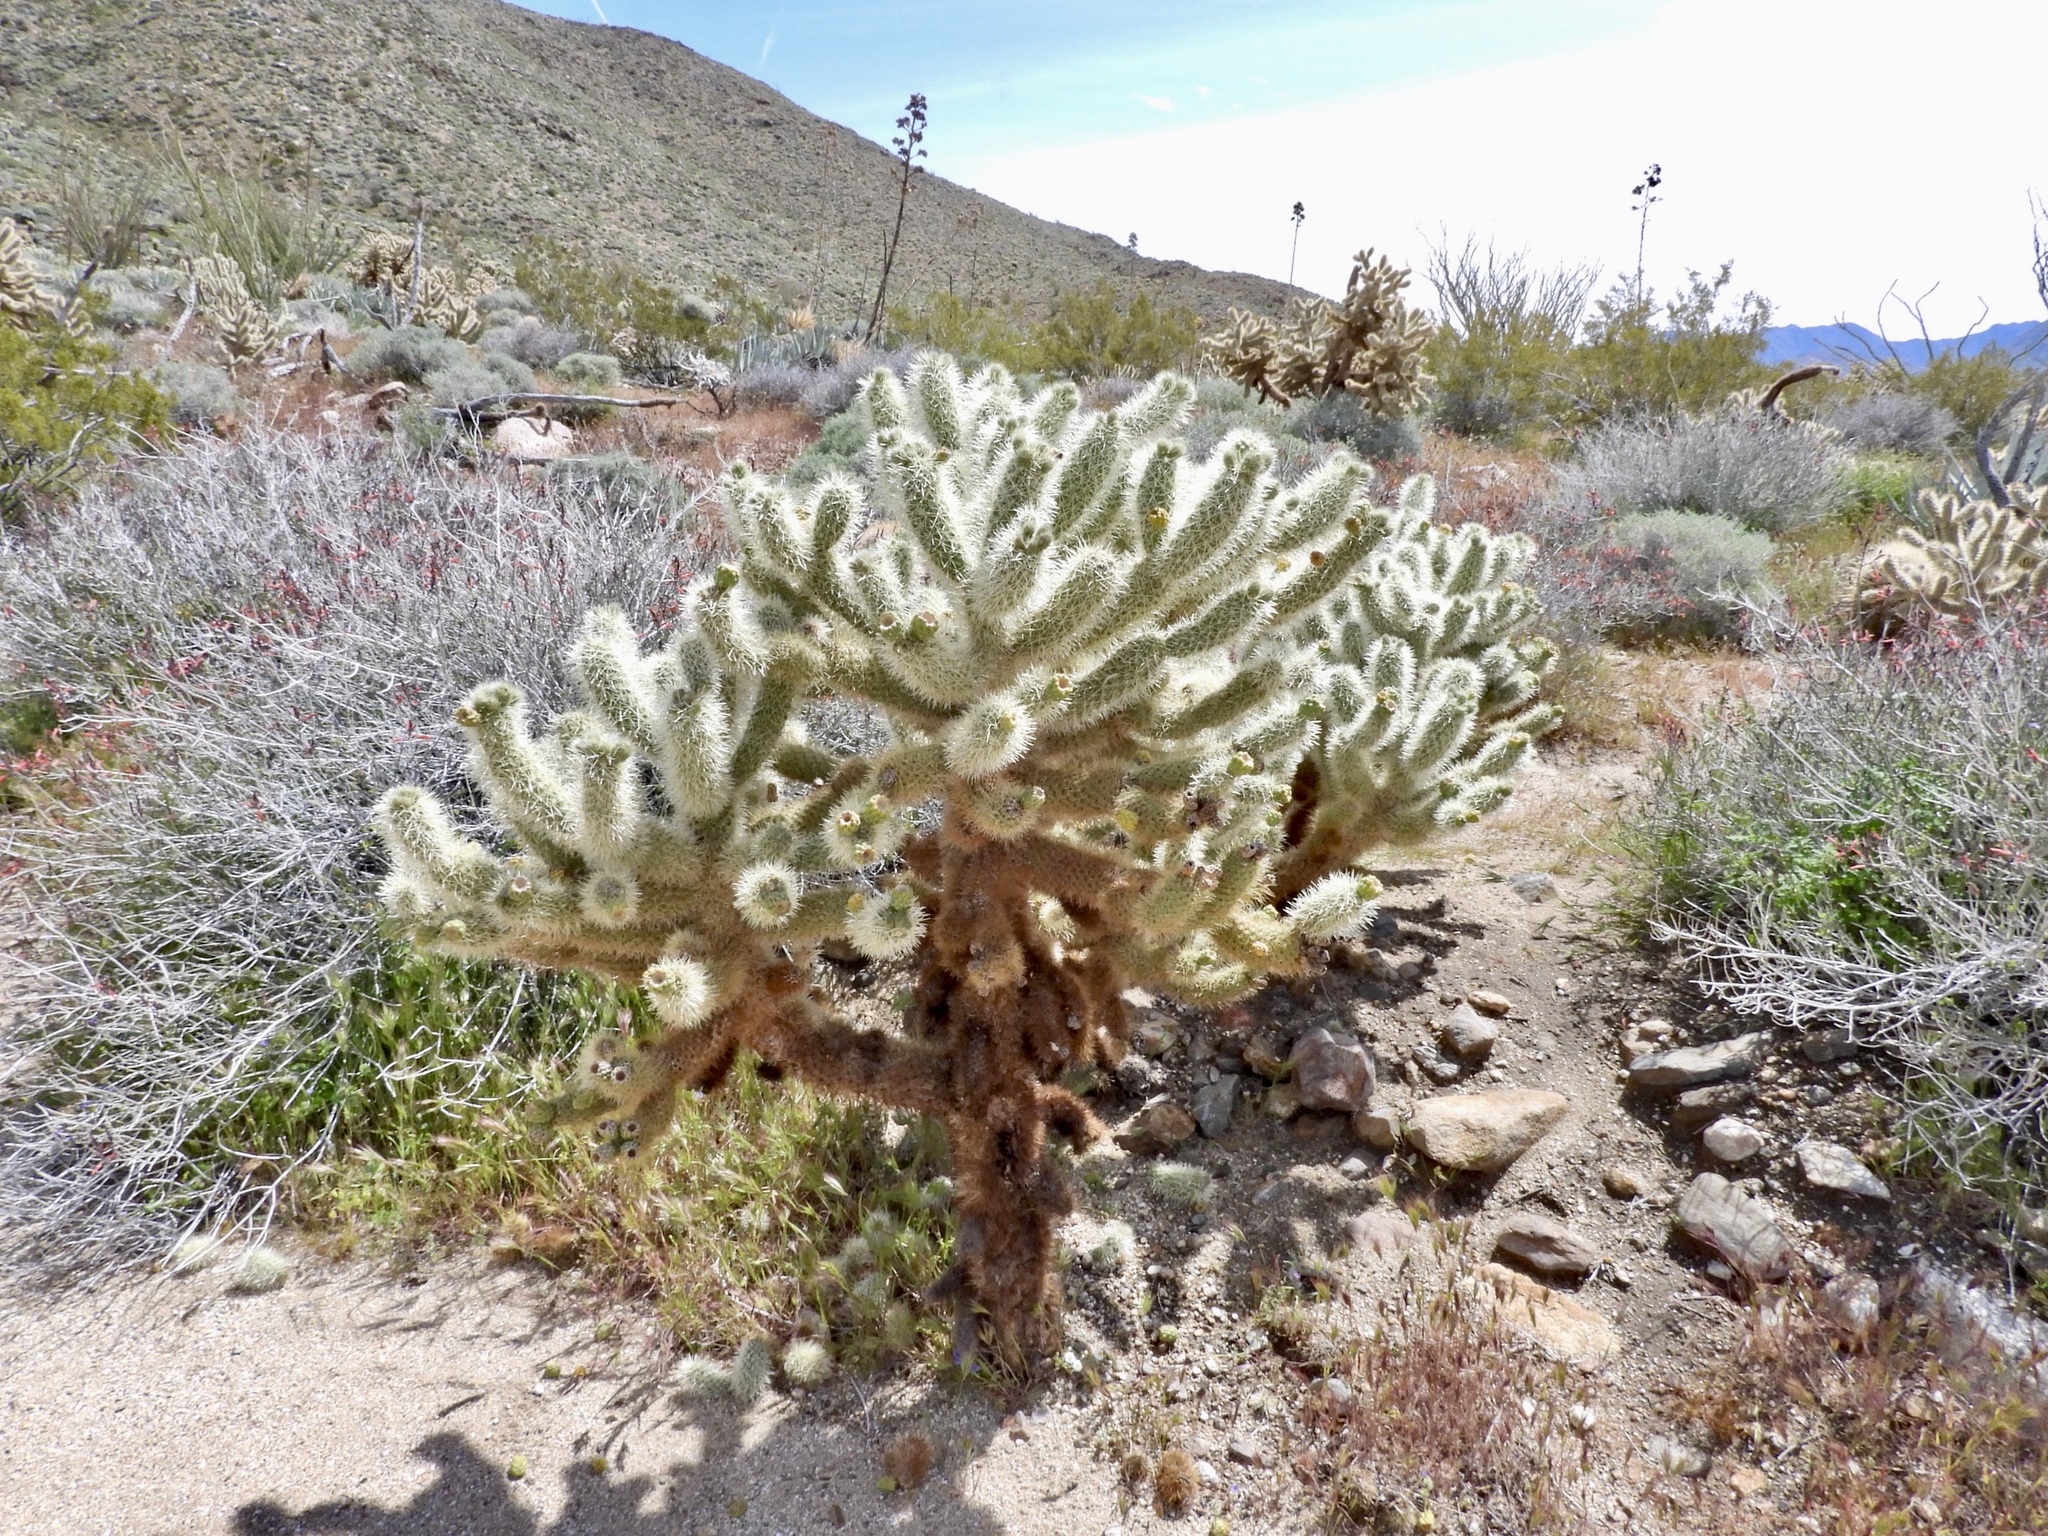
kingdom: Plantae
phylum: Tracheophyta
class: Magnoliopsida
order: Caryophyllales
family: Cactaceae
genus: Cylindropuntia
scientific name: Cylindropuntia fosbergii
